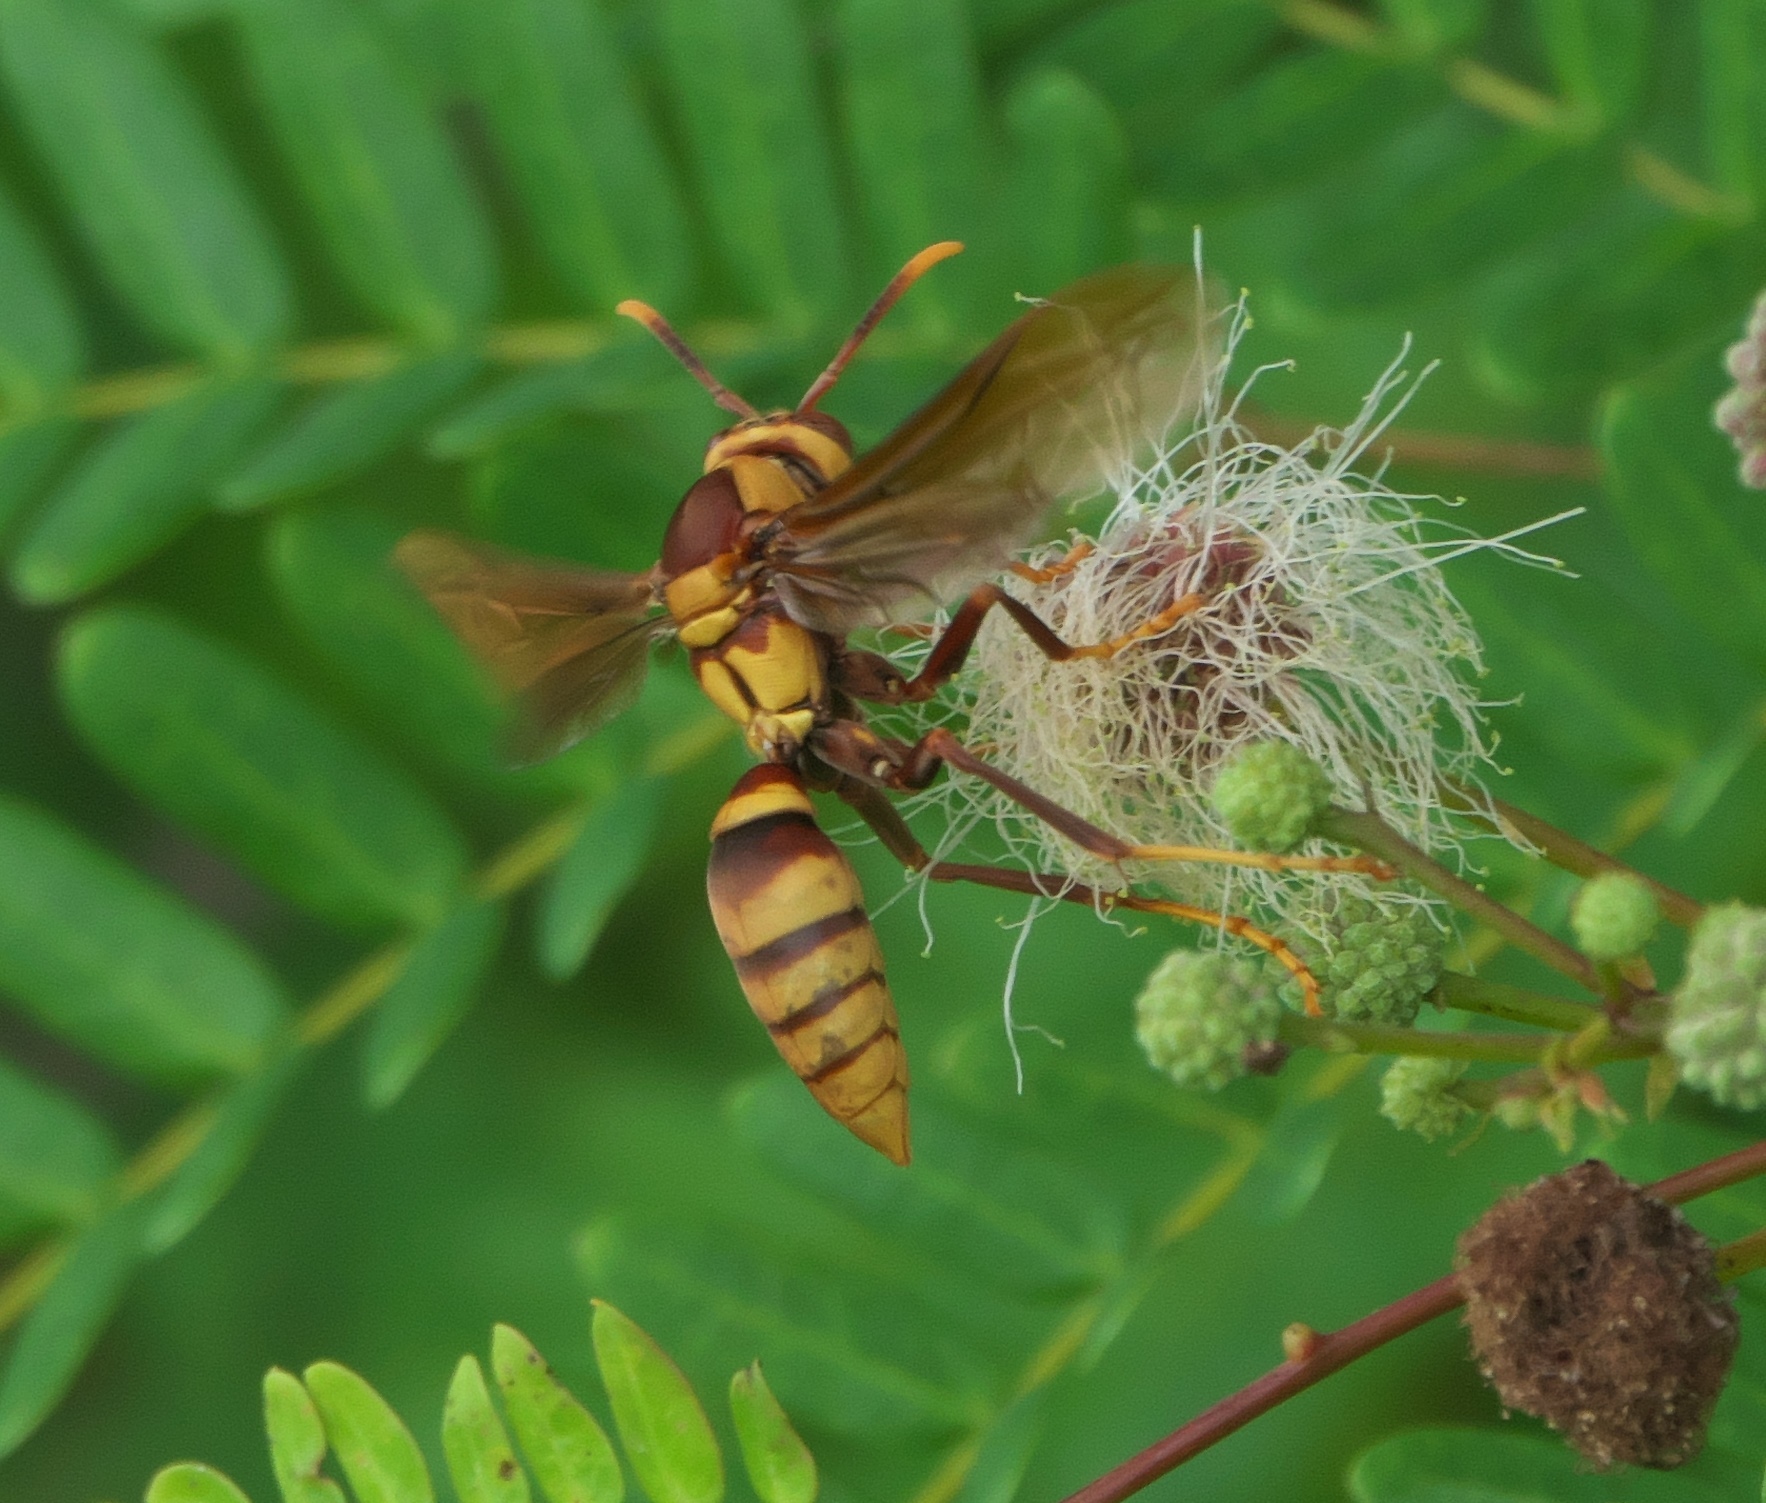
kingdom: Animalia
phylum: Arthropoda
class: Insecta
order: Hymenoptera
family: Eumenidae
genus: Polistes
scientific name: Polistes major
